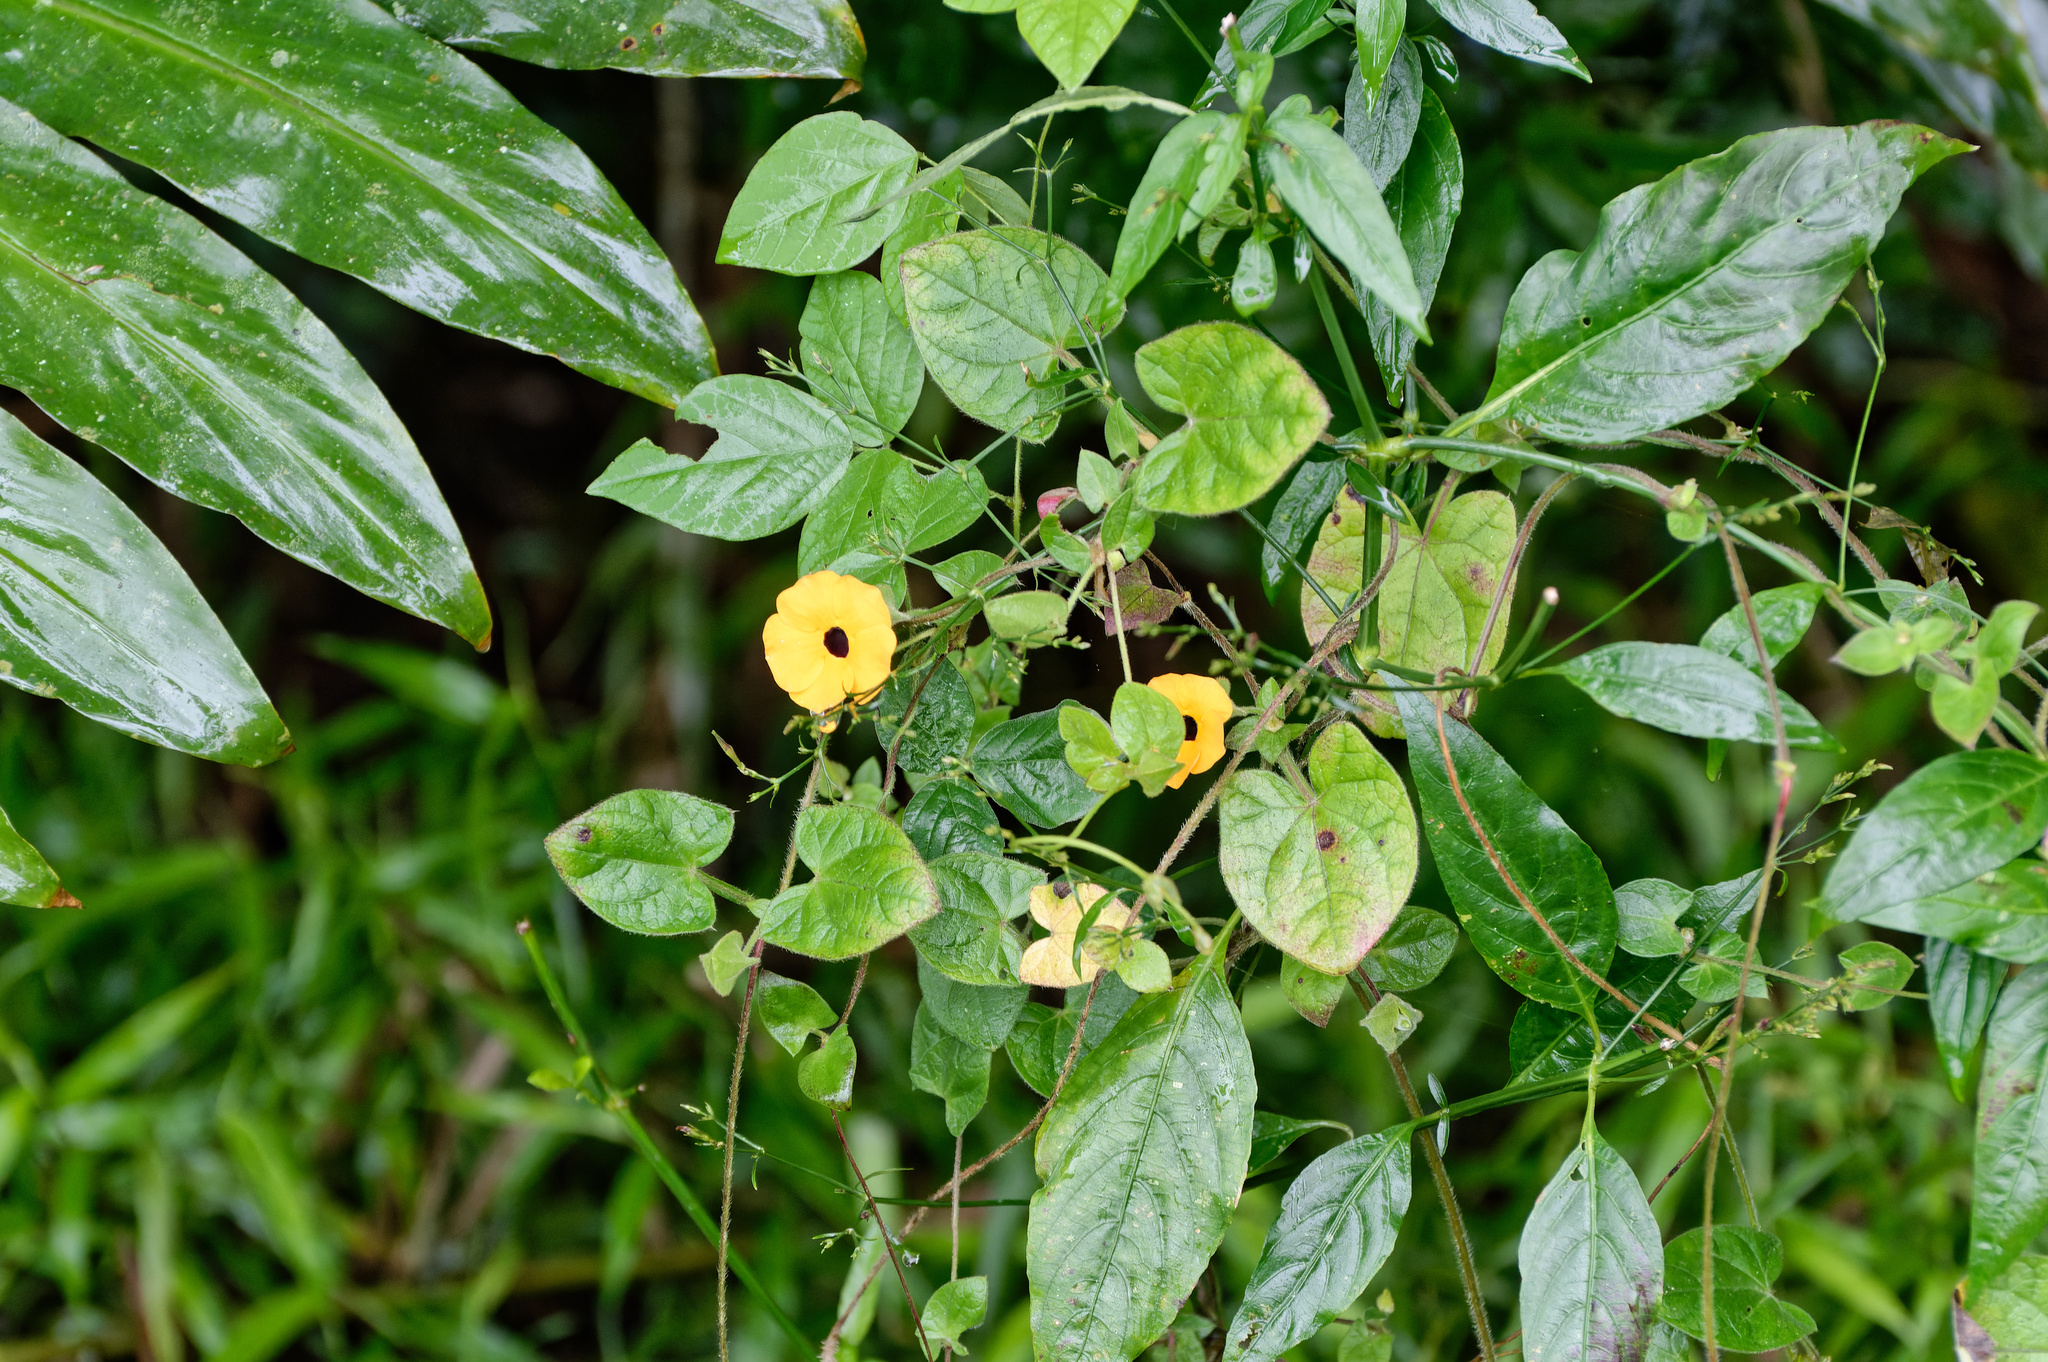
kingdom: Plantae
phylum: Tracheophyta
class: Magnoliopsida
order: Lamiales
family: Acanthaceae
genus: Thunbergia
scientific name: Thunbergia alata
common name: Blackeyed susan vine
